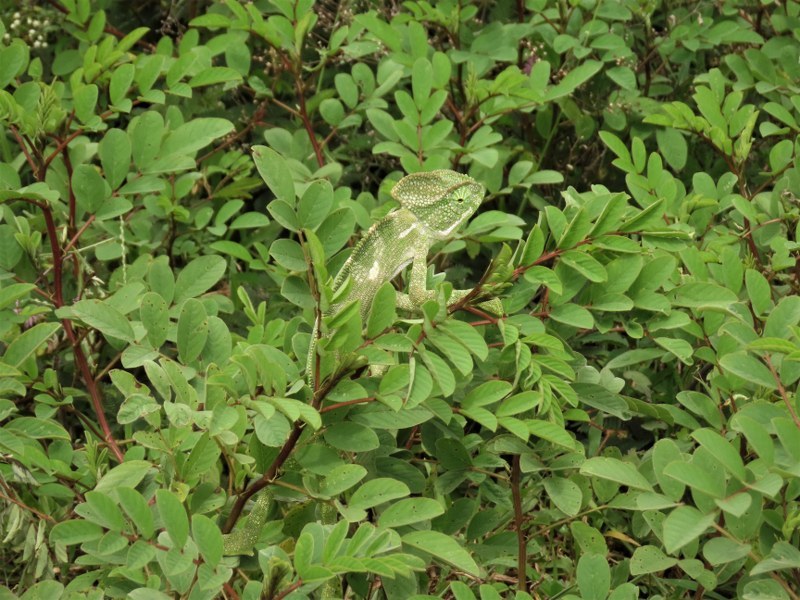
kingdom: Animalia
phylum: Chordata
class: Squamata
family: Chamaeleonidae
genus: Chamaeleo
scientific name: Chamaeleo zeylanicus
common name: Indian chameleon
